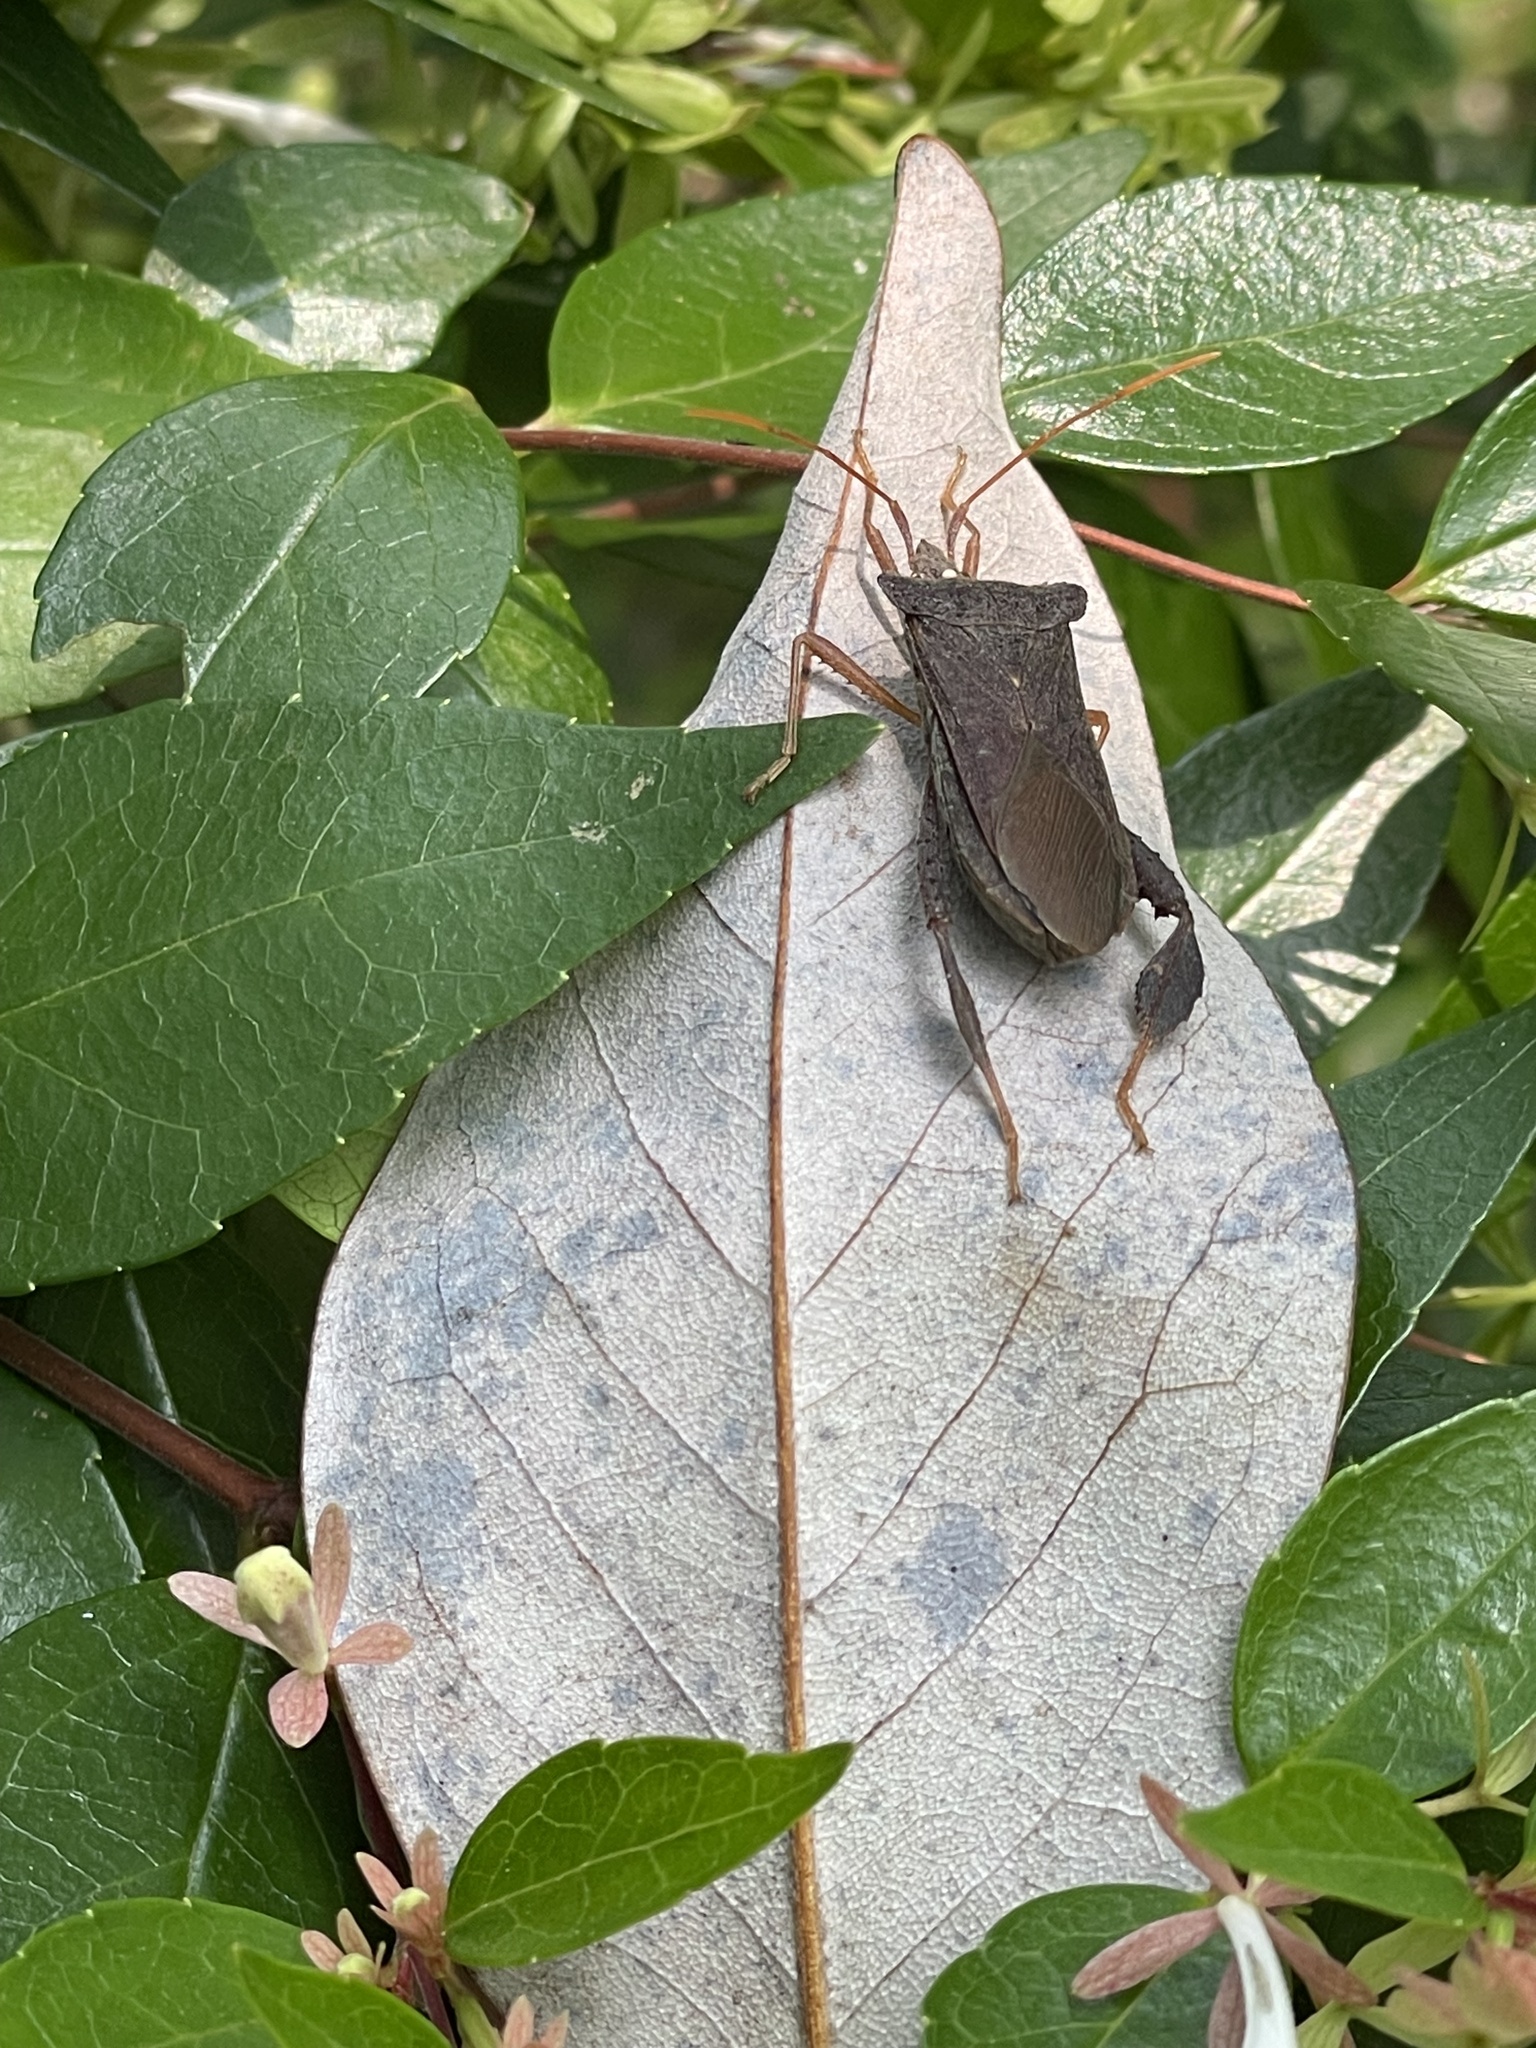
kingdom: Animalia
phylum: Arthropoda
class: Insecta
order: Hemiptera
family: Coreidae
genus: Leptoglossus
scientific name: Leptoglossus fulvicornis
